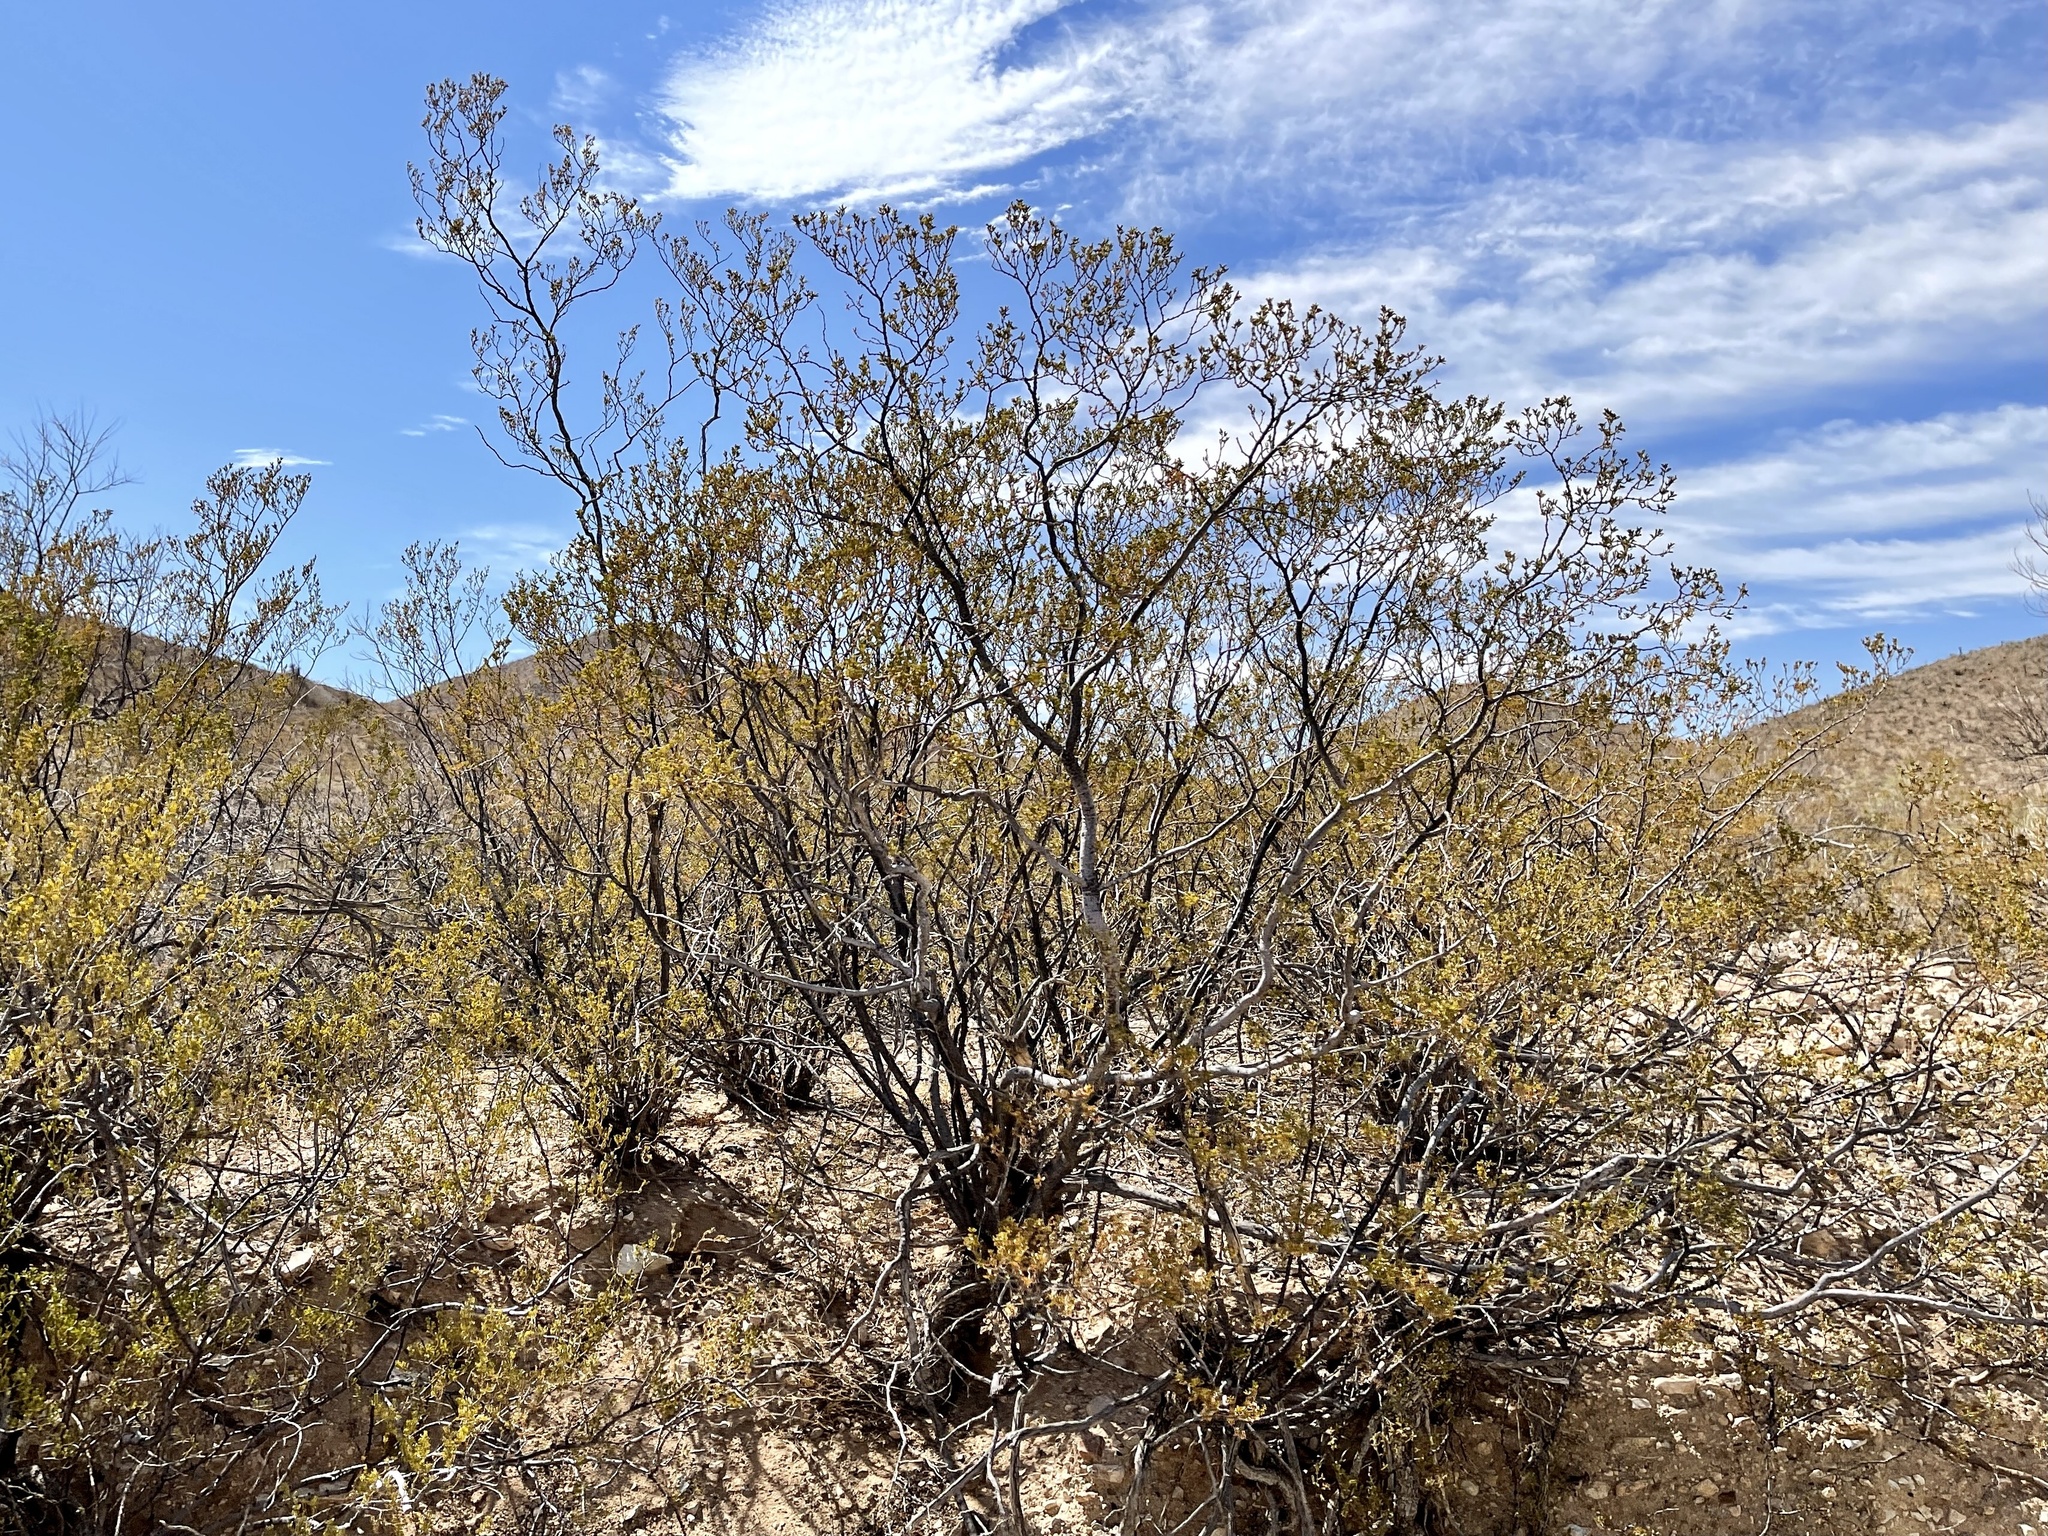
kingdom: Plantae
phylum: Tracheophyta
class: Magnoliopsida
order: Zygophyllales
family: Zygophyllaceae
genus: Larrea
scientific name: Larrea tridentata
